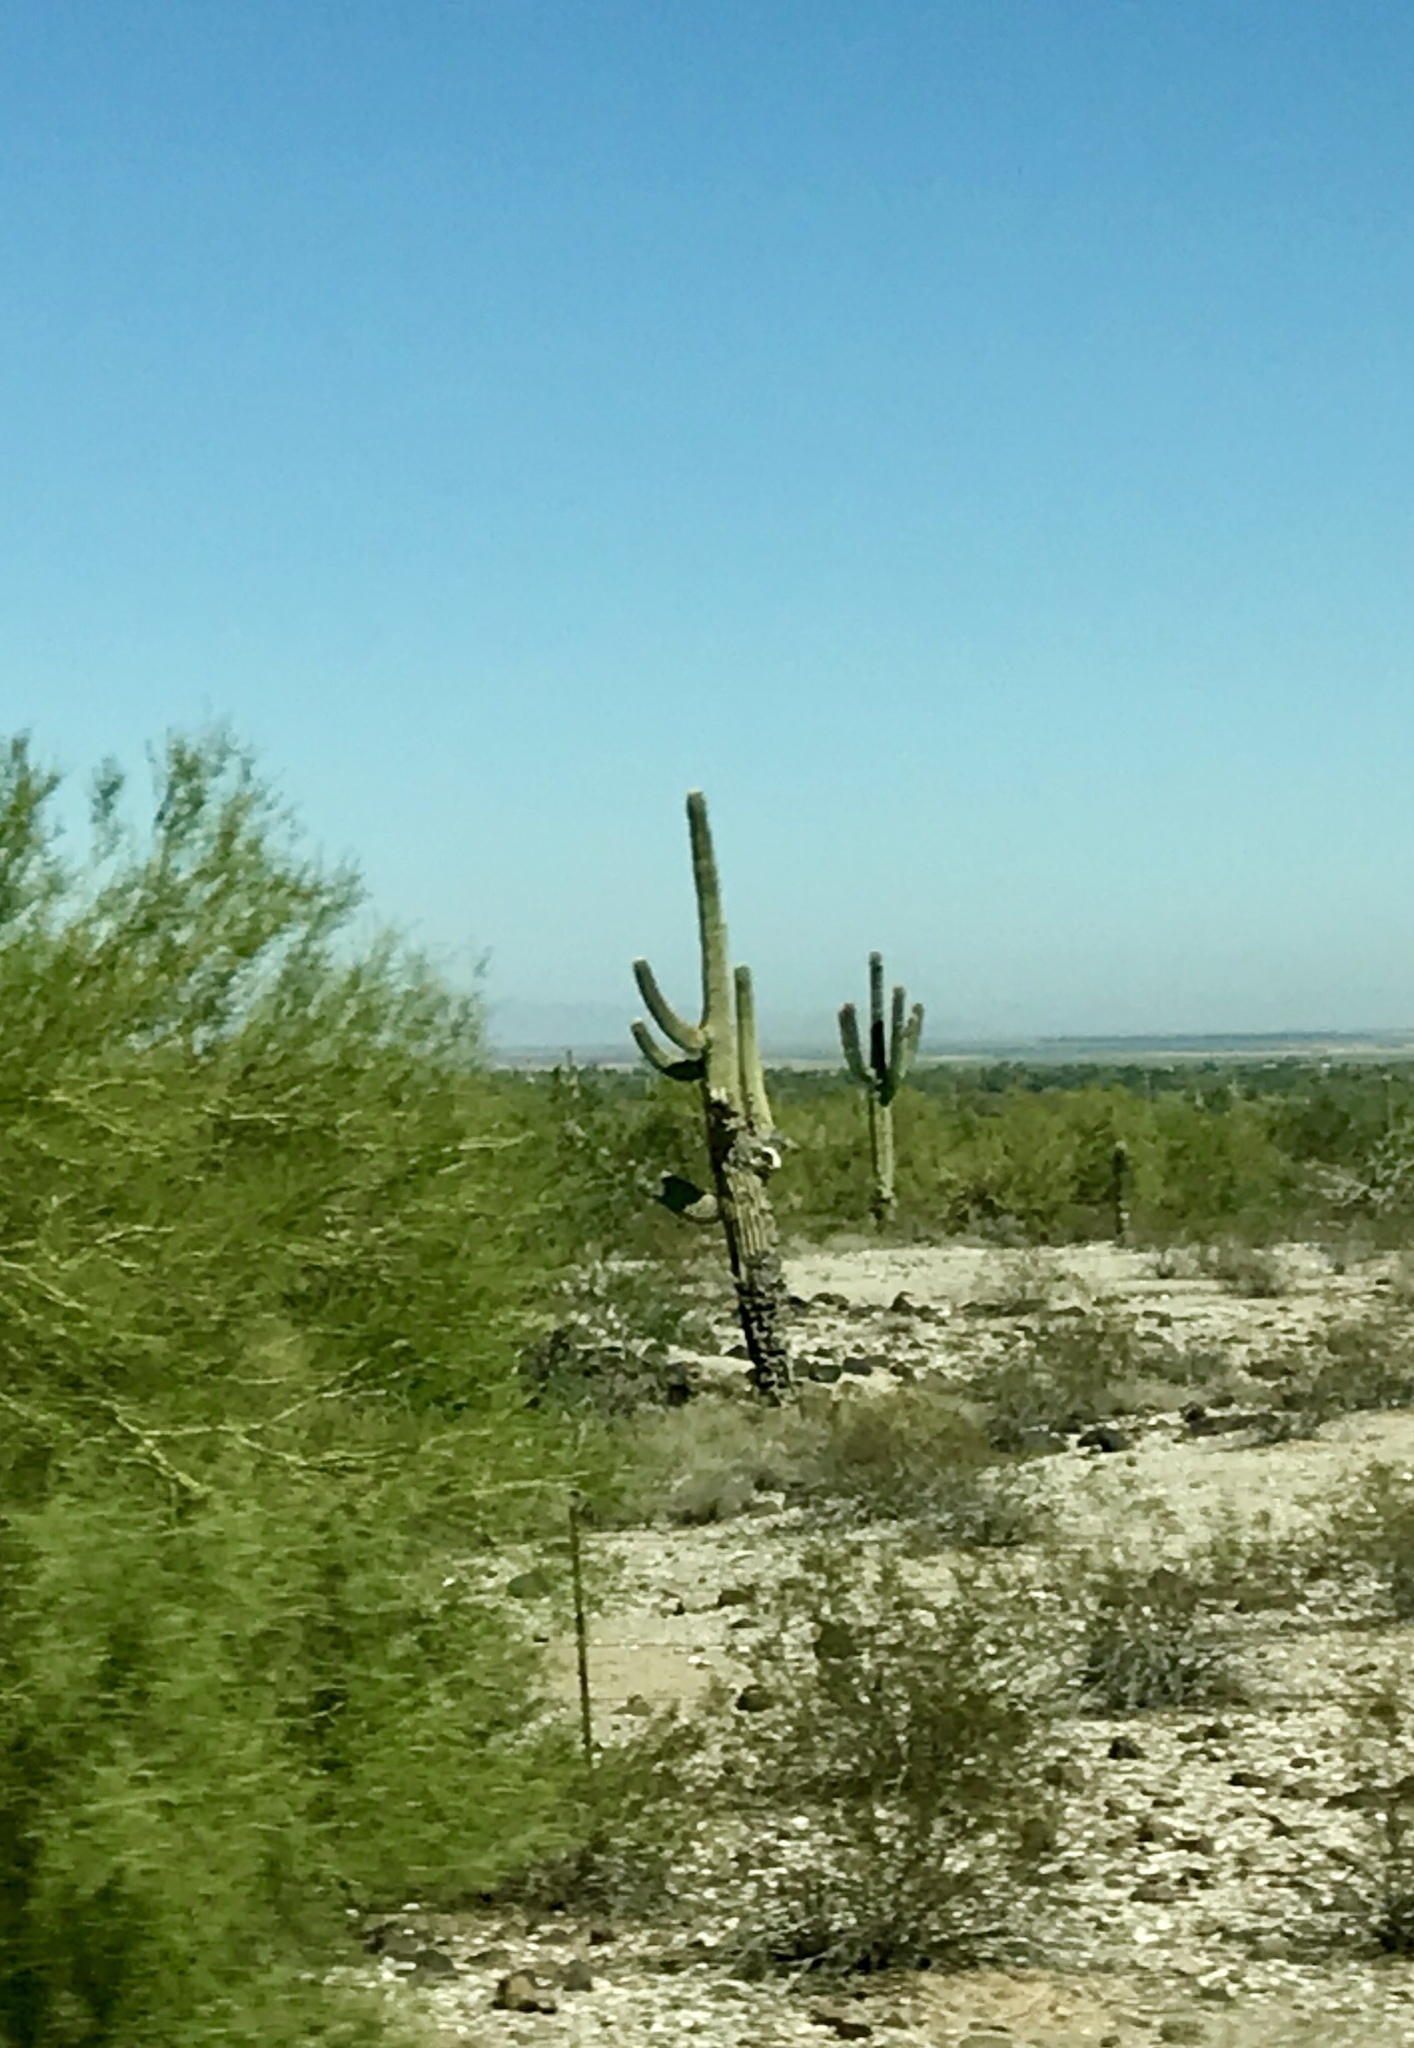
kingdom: Plantae
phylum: Tracheophyta
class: Magnoliopsida
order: Caryophyllales
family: Cactaceae
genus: Carnegiea
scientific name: Carnegiea gigantea
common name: Saguaro
